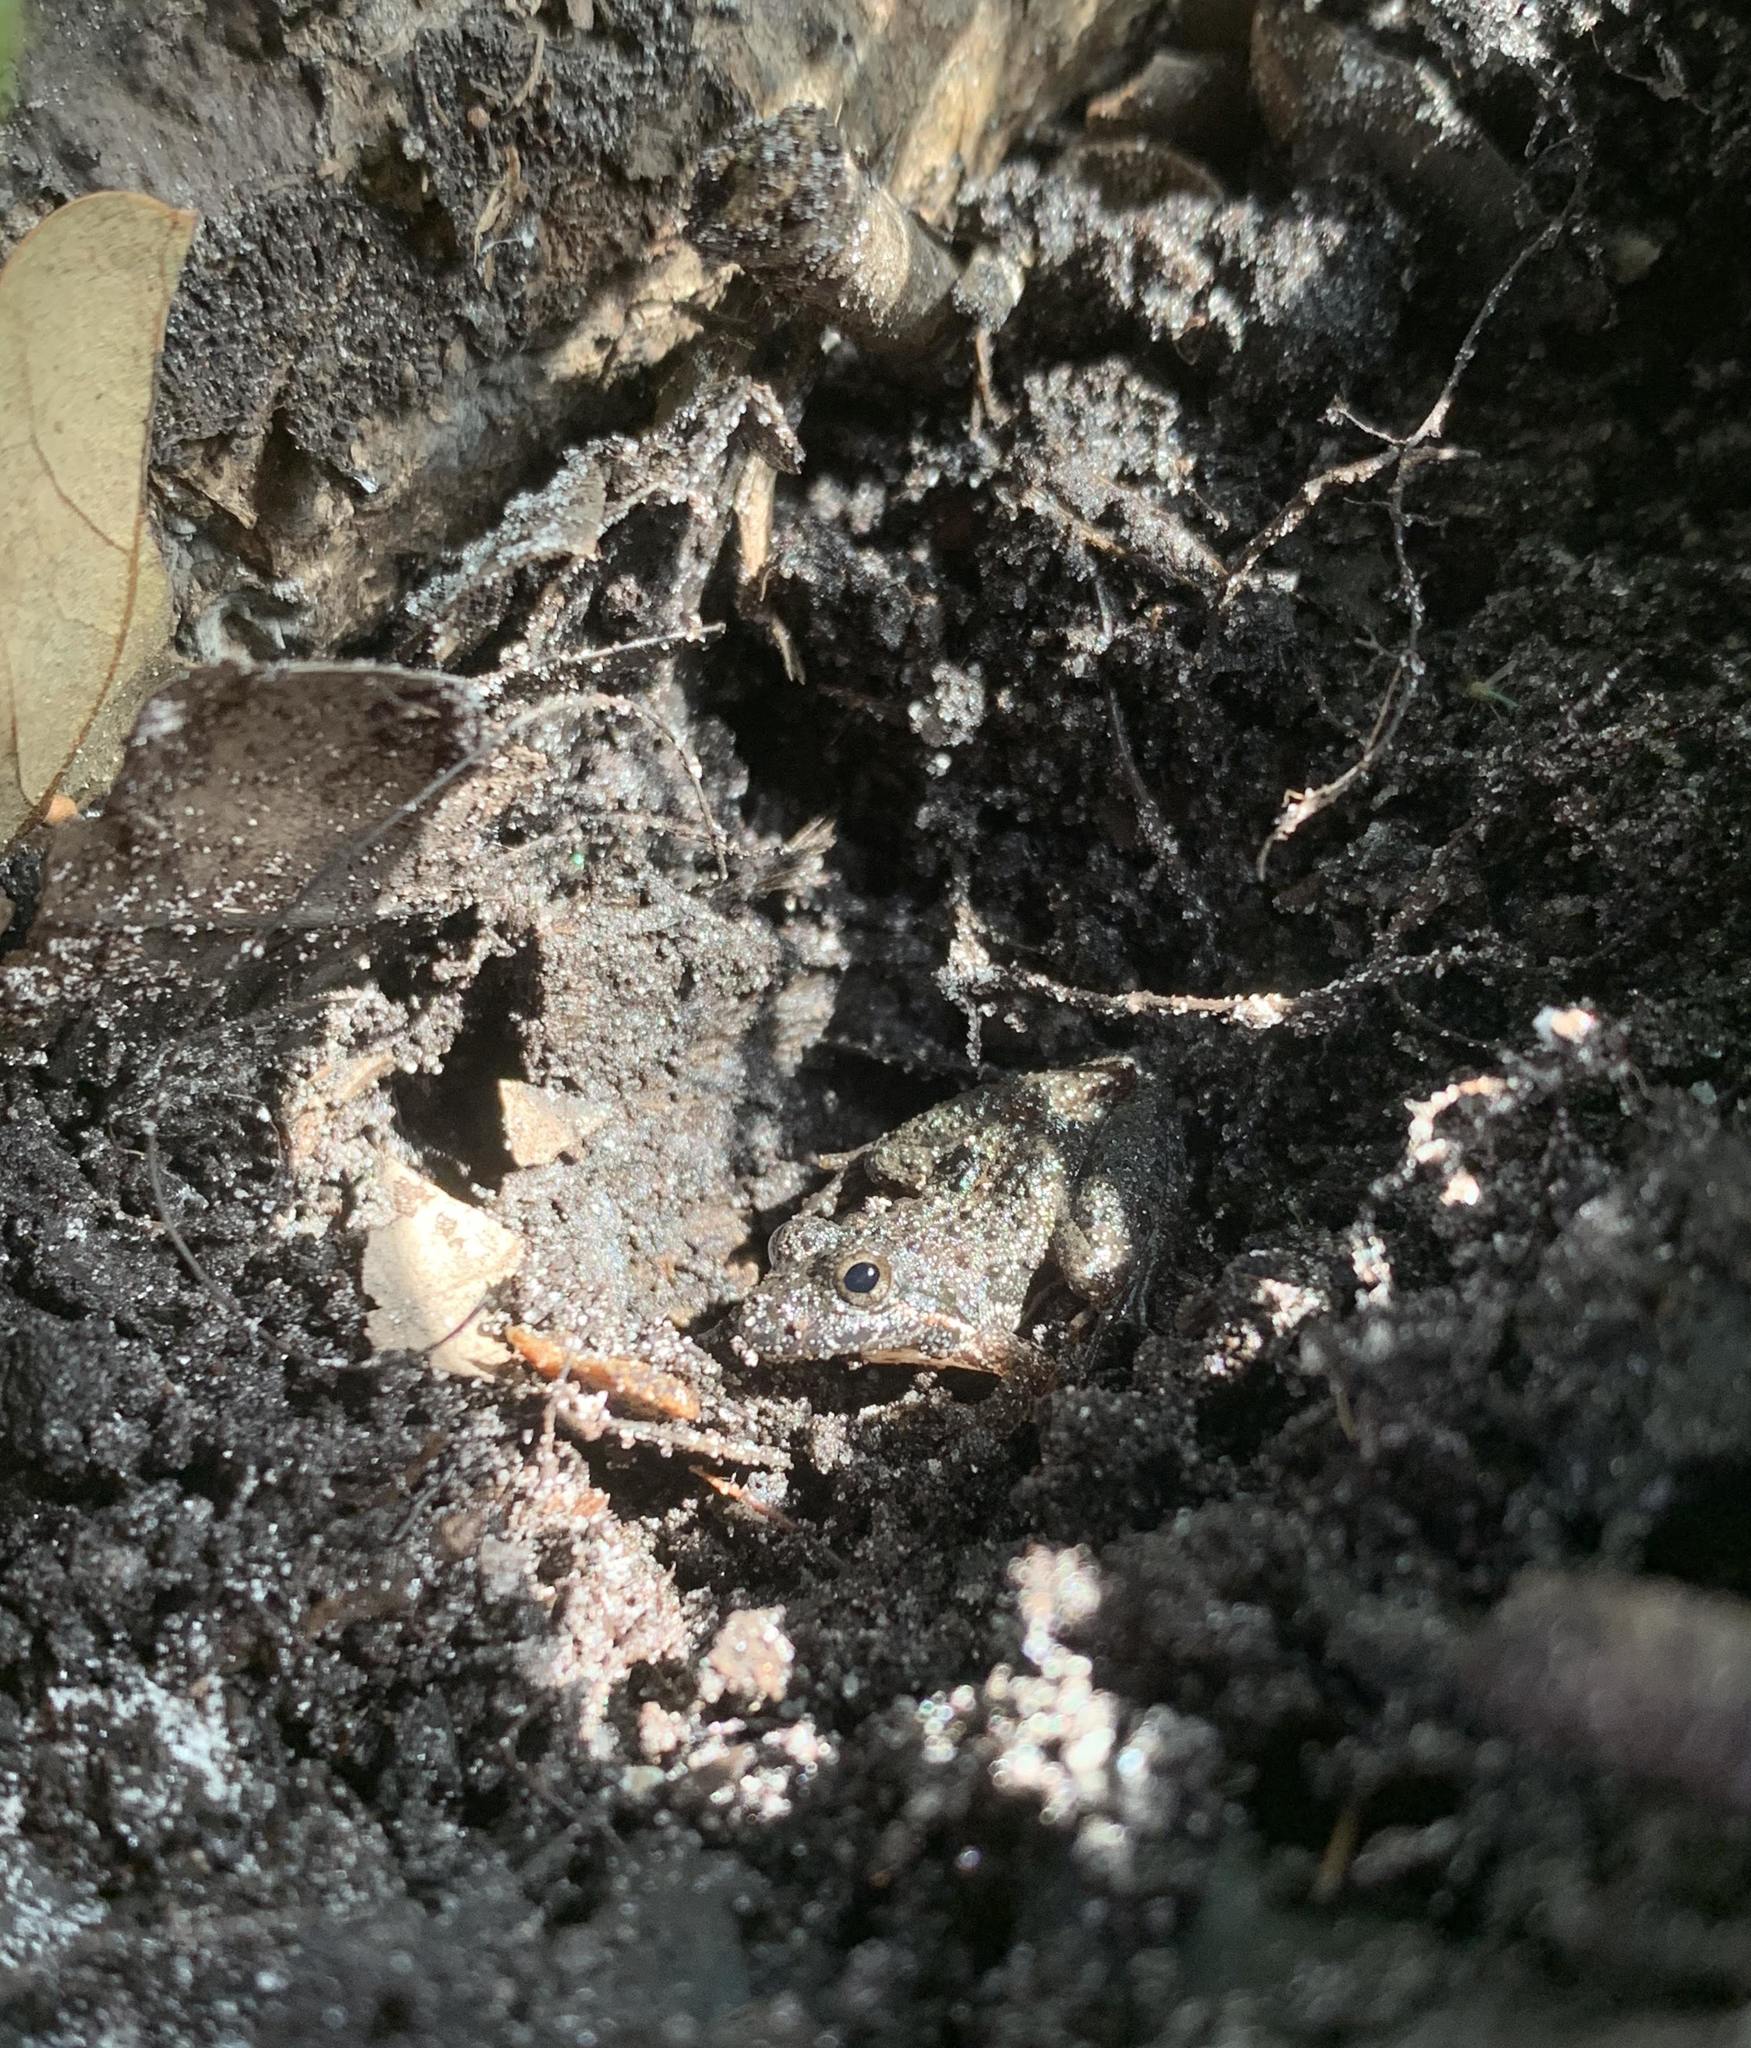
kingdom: Animalia
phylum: Chordata
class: Amphibia
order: Anura
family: Hylidae
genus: Acris
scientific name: Acris gryllus
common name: Southern cricket frog
